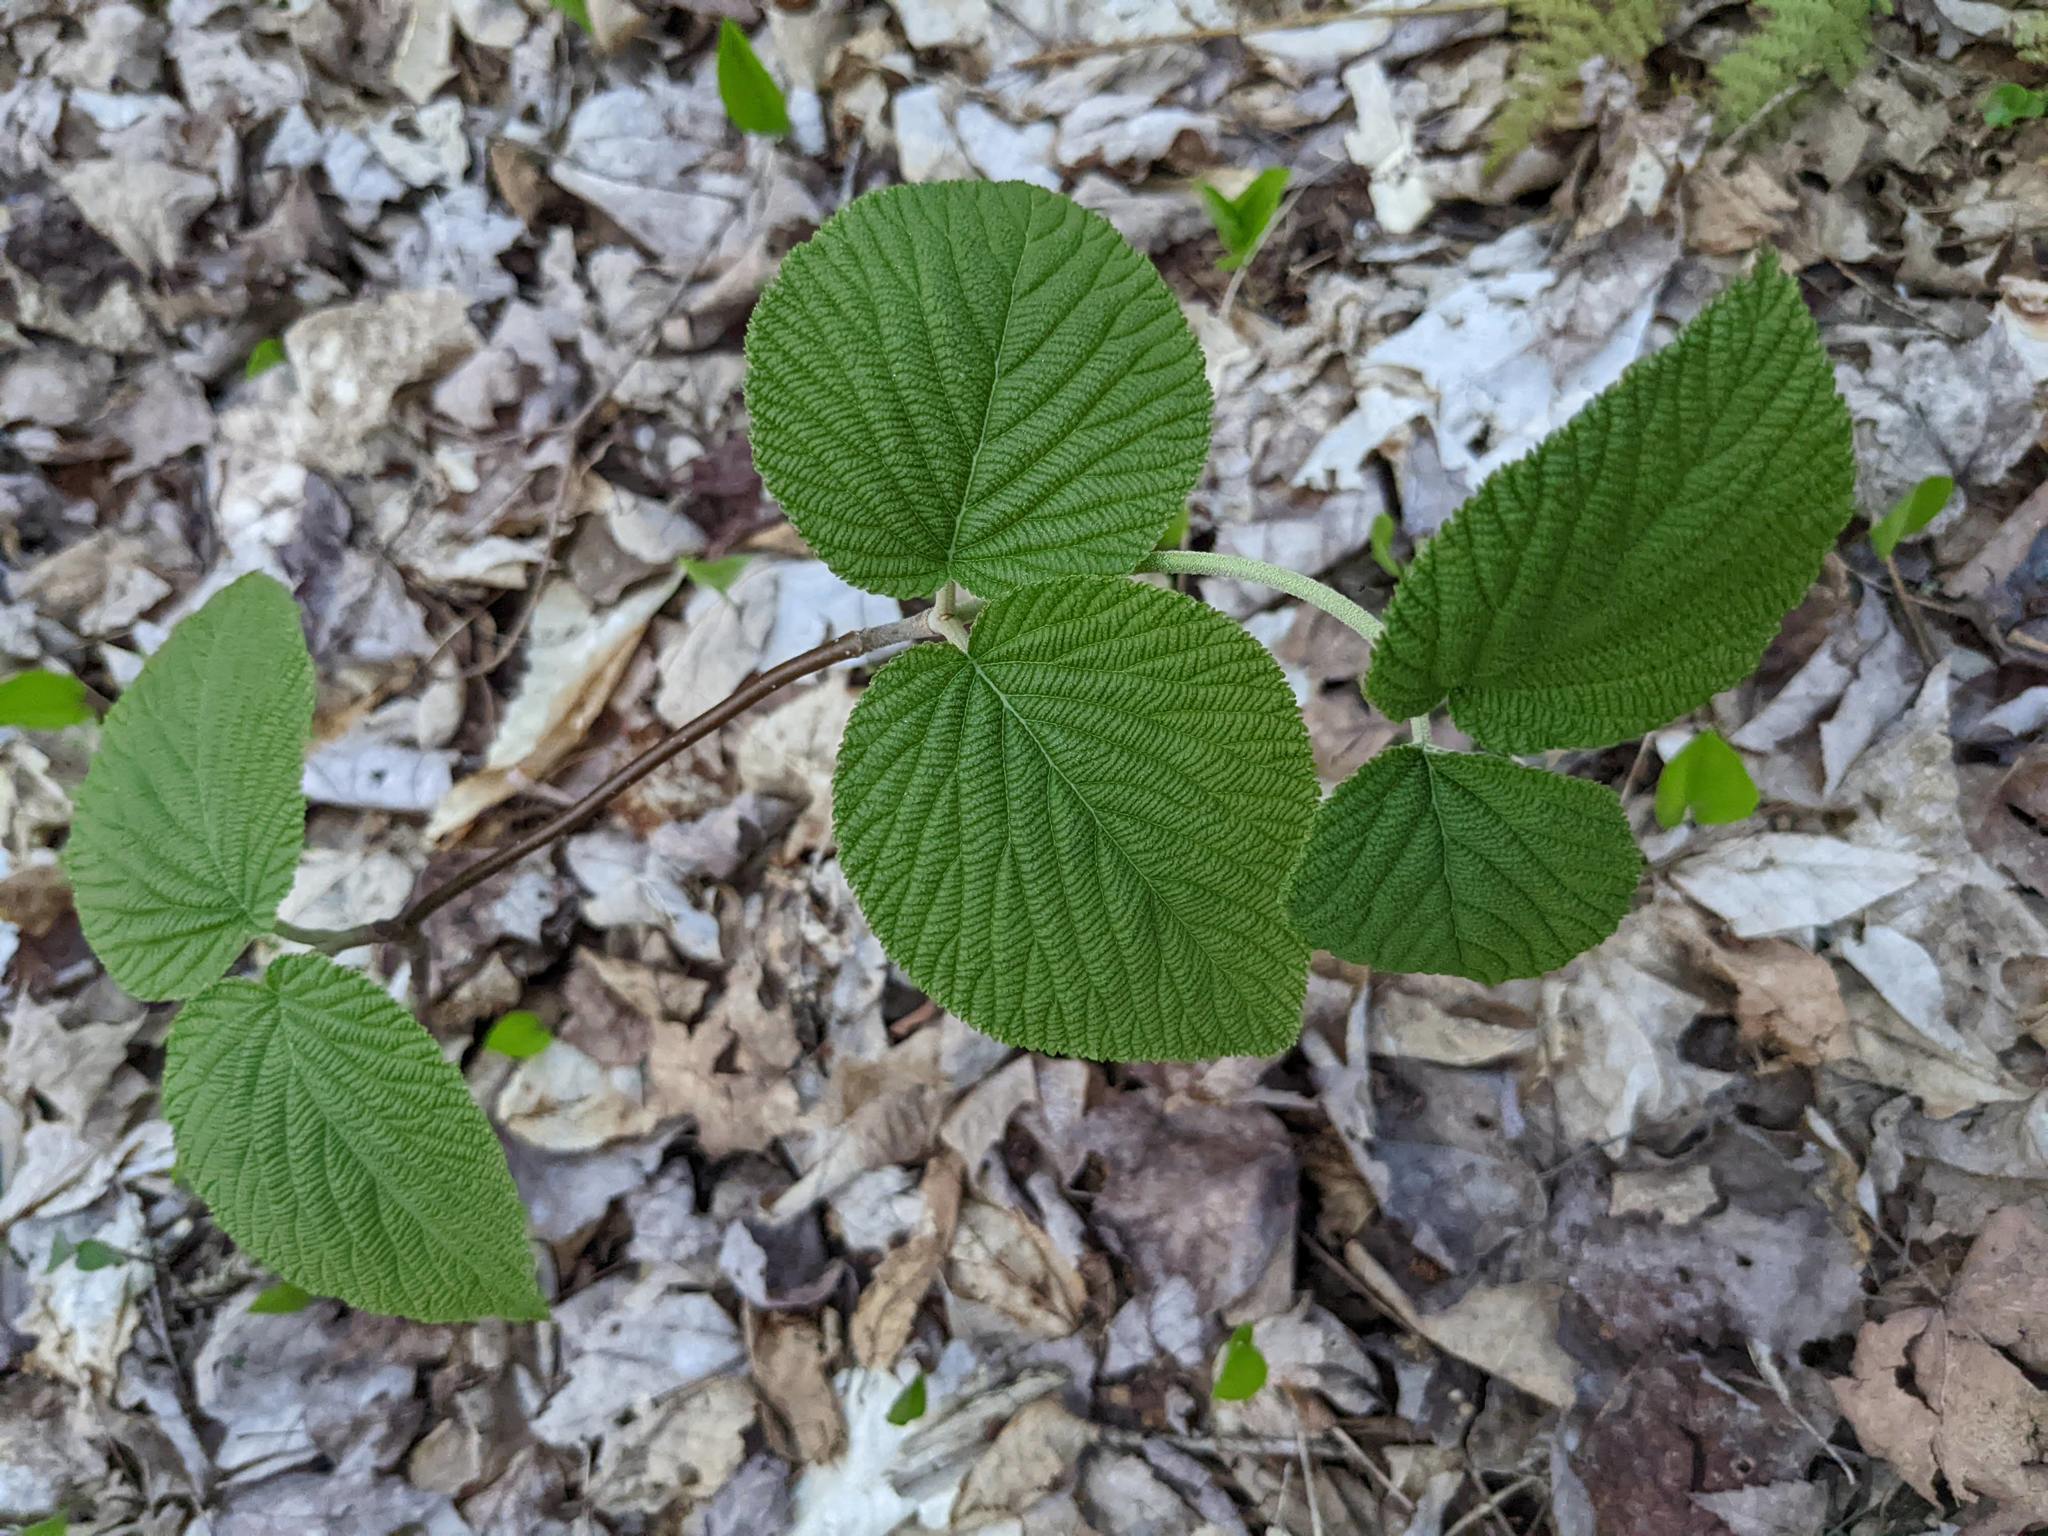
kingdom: Plantae
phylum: Tracheophyta
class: Magnoliopsida
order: Dipsacales
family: Viburnaceae
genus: Viburnum
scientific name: Viburnum lantanoides
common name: Hobblebush
